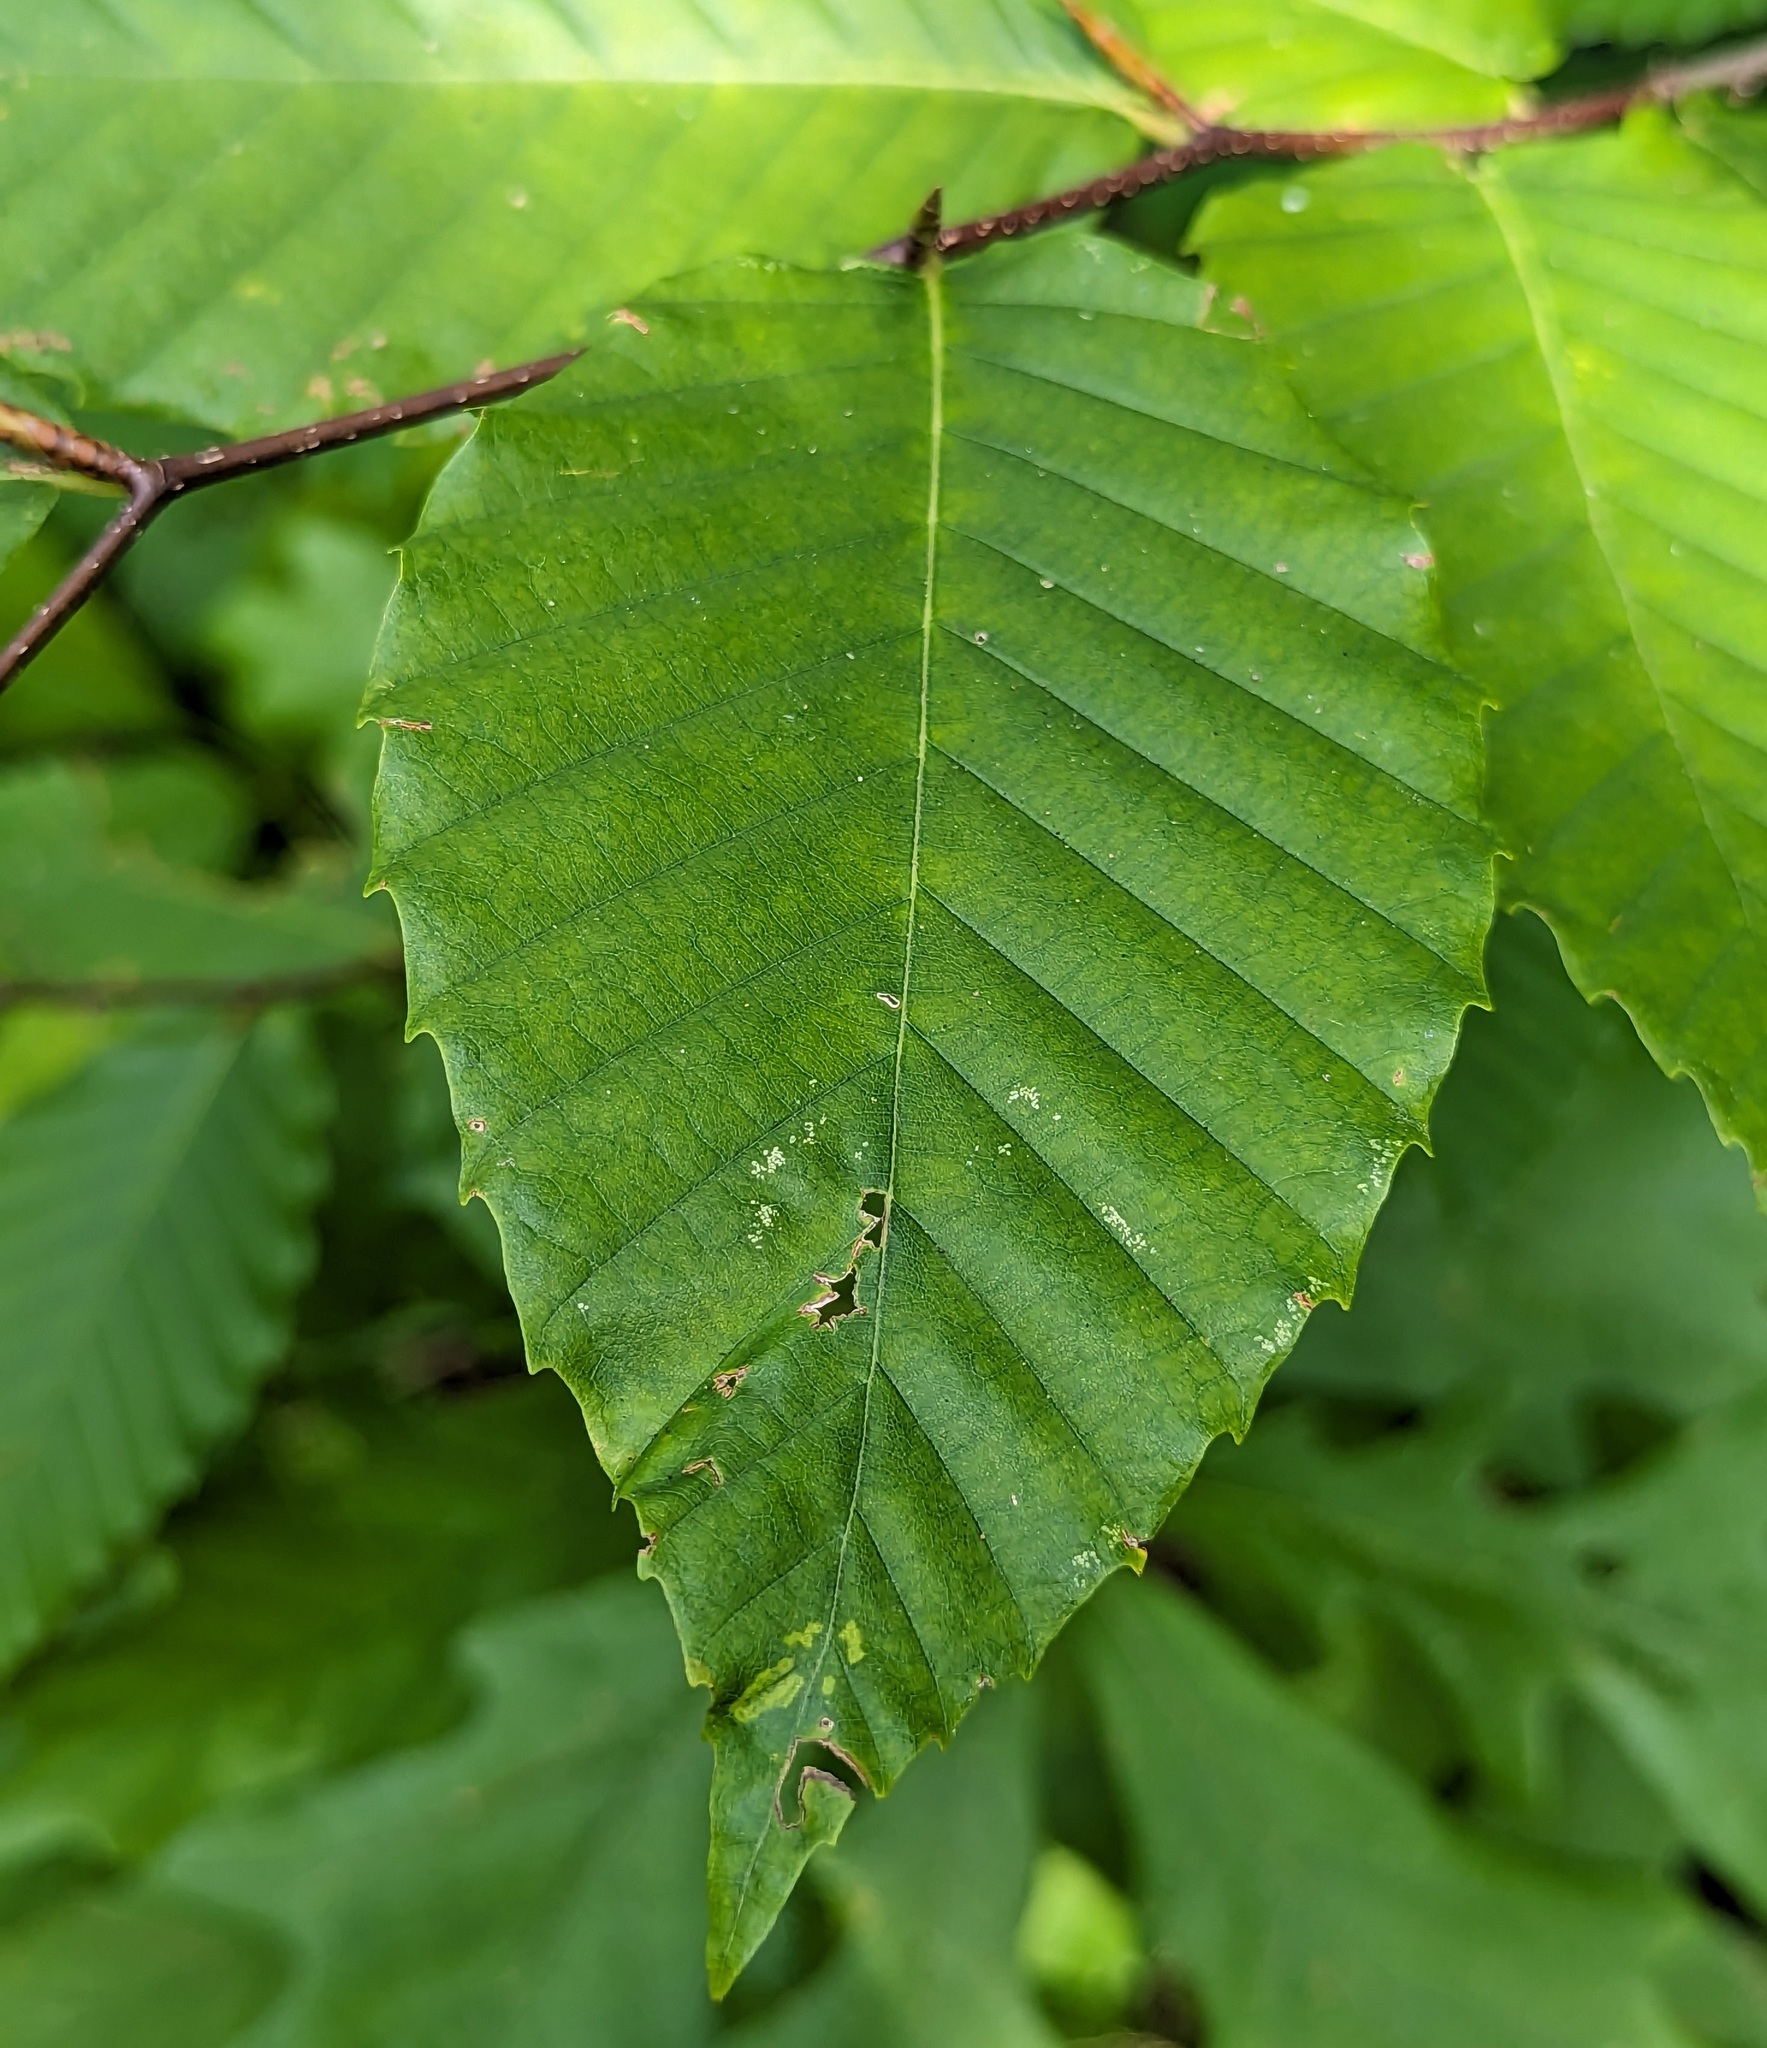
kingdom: Plantae
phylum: Tracheophyta
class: Magnoliopsida
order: Fagales
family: Fagaceae
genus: Fagus
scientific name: Fagus grandifolia
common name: American beech
